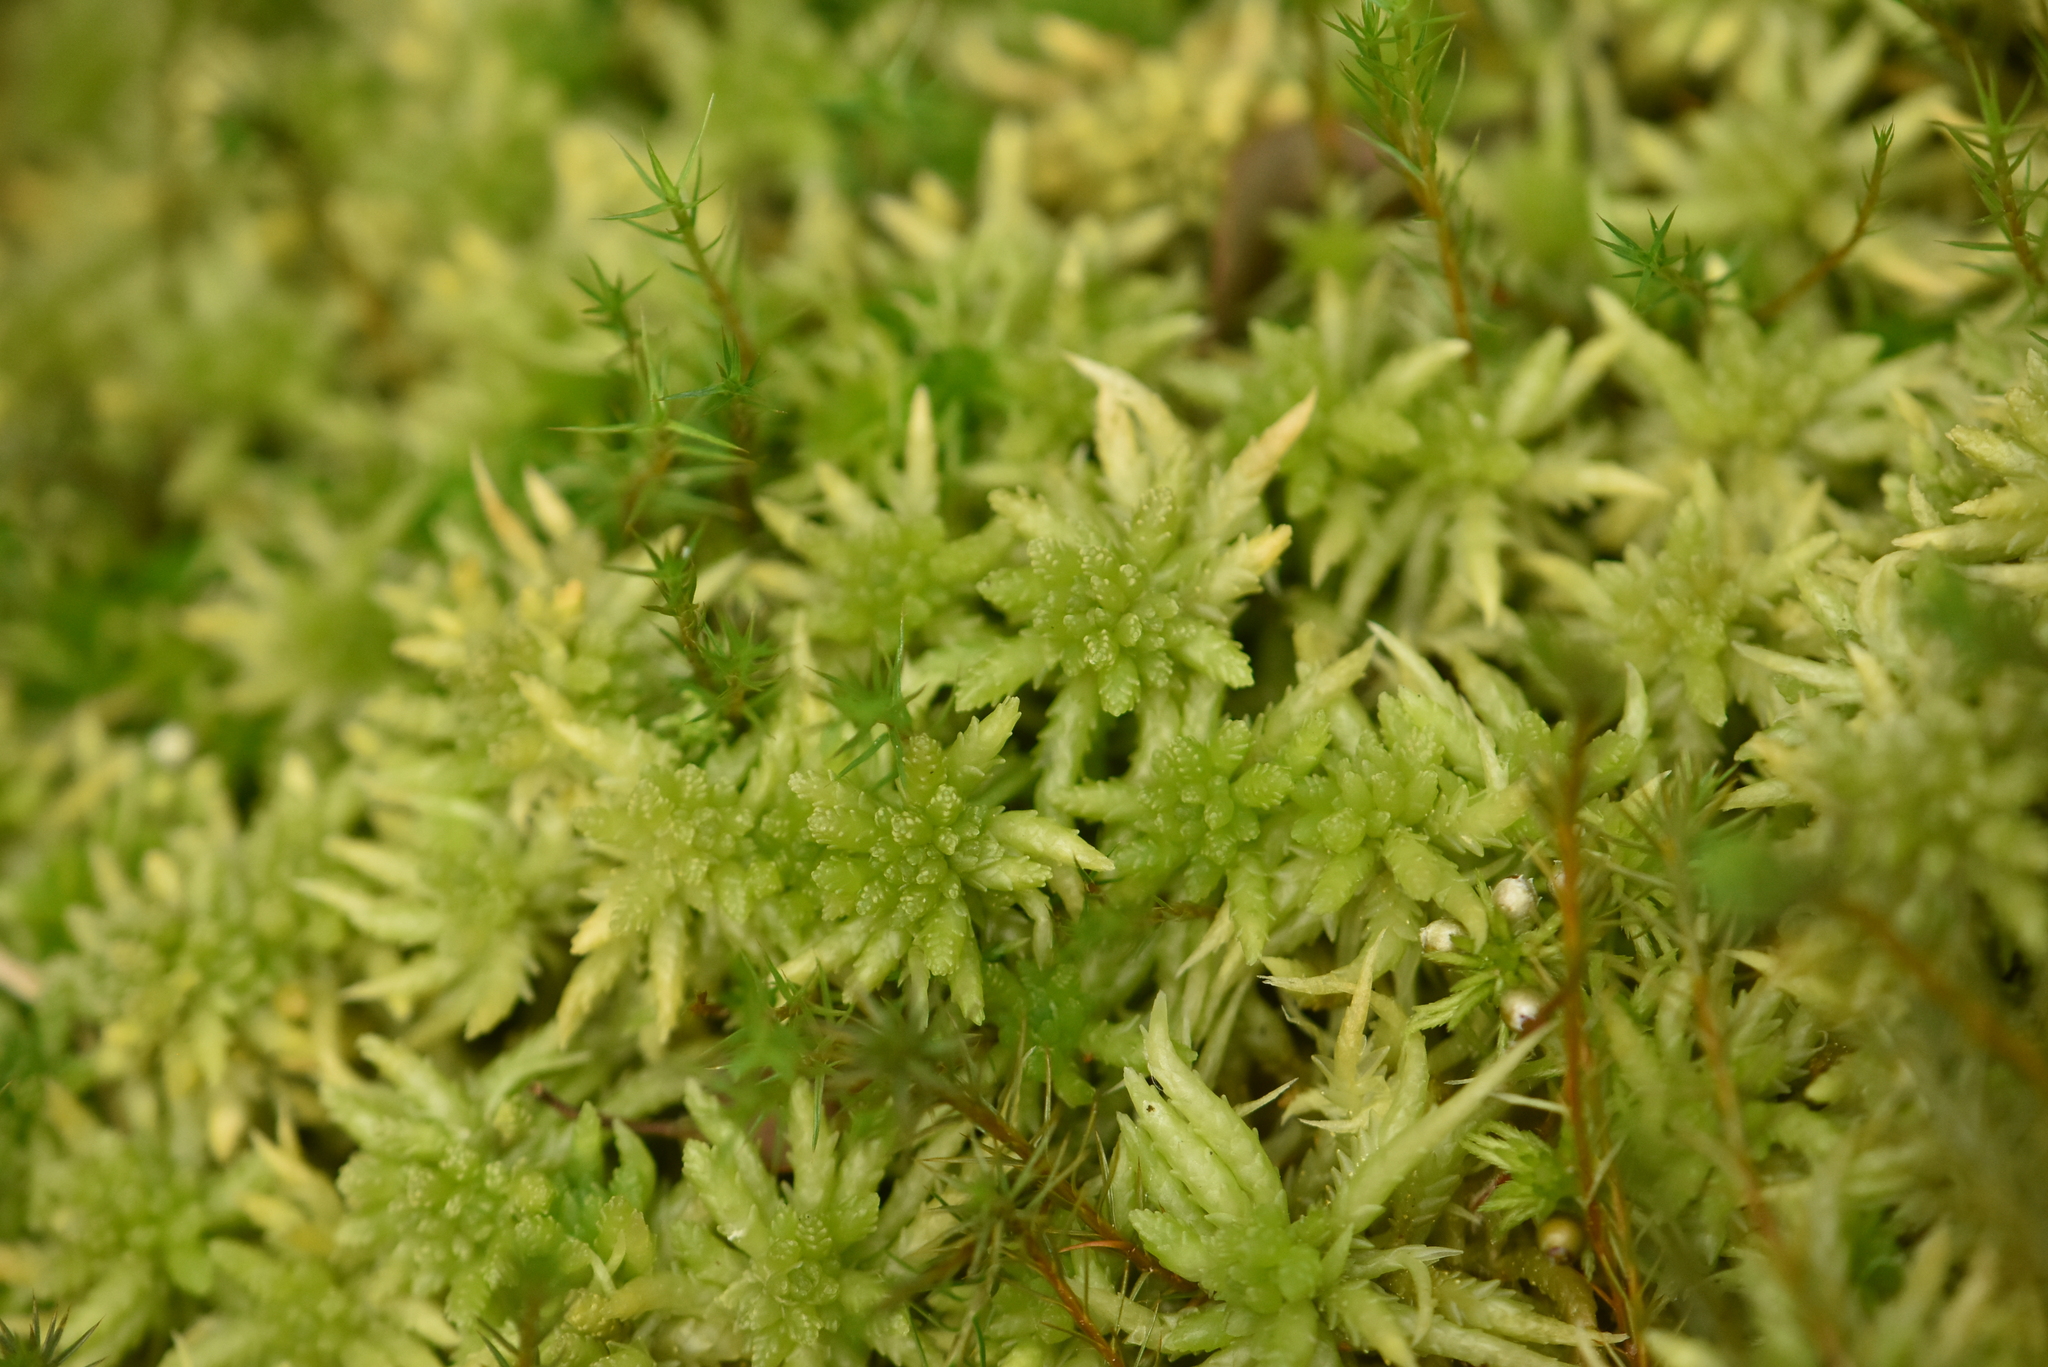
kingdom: Plantae
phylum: Bryophyta
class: Sphagnopsida
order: Sphagnales
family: Sphagnaceae
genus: Sphagnum
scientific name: Sphagnum centrale
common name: Central peat moss
